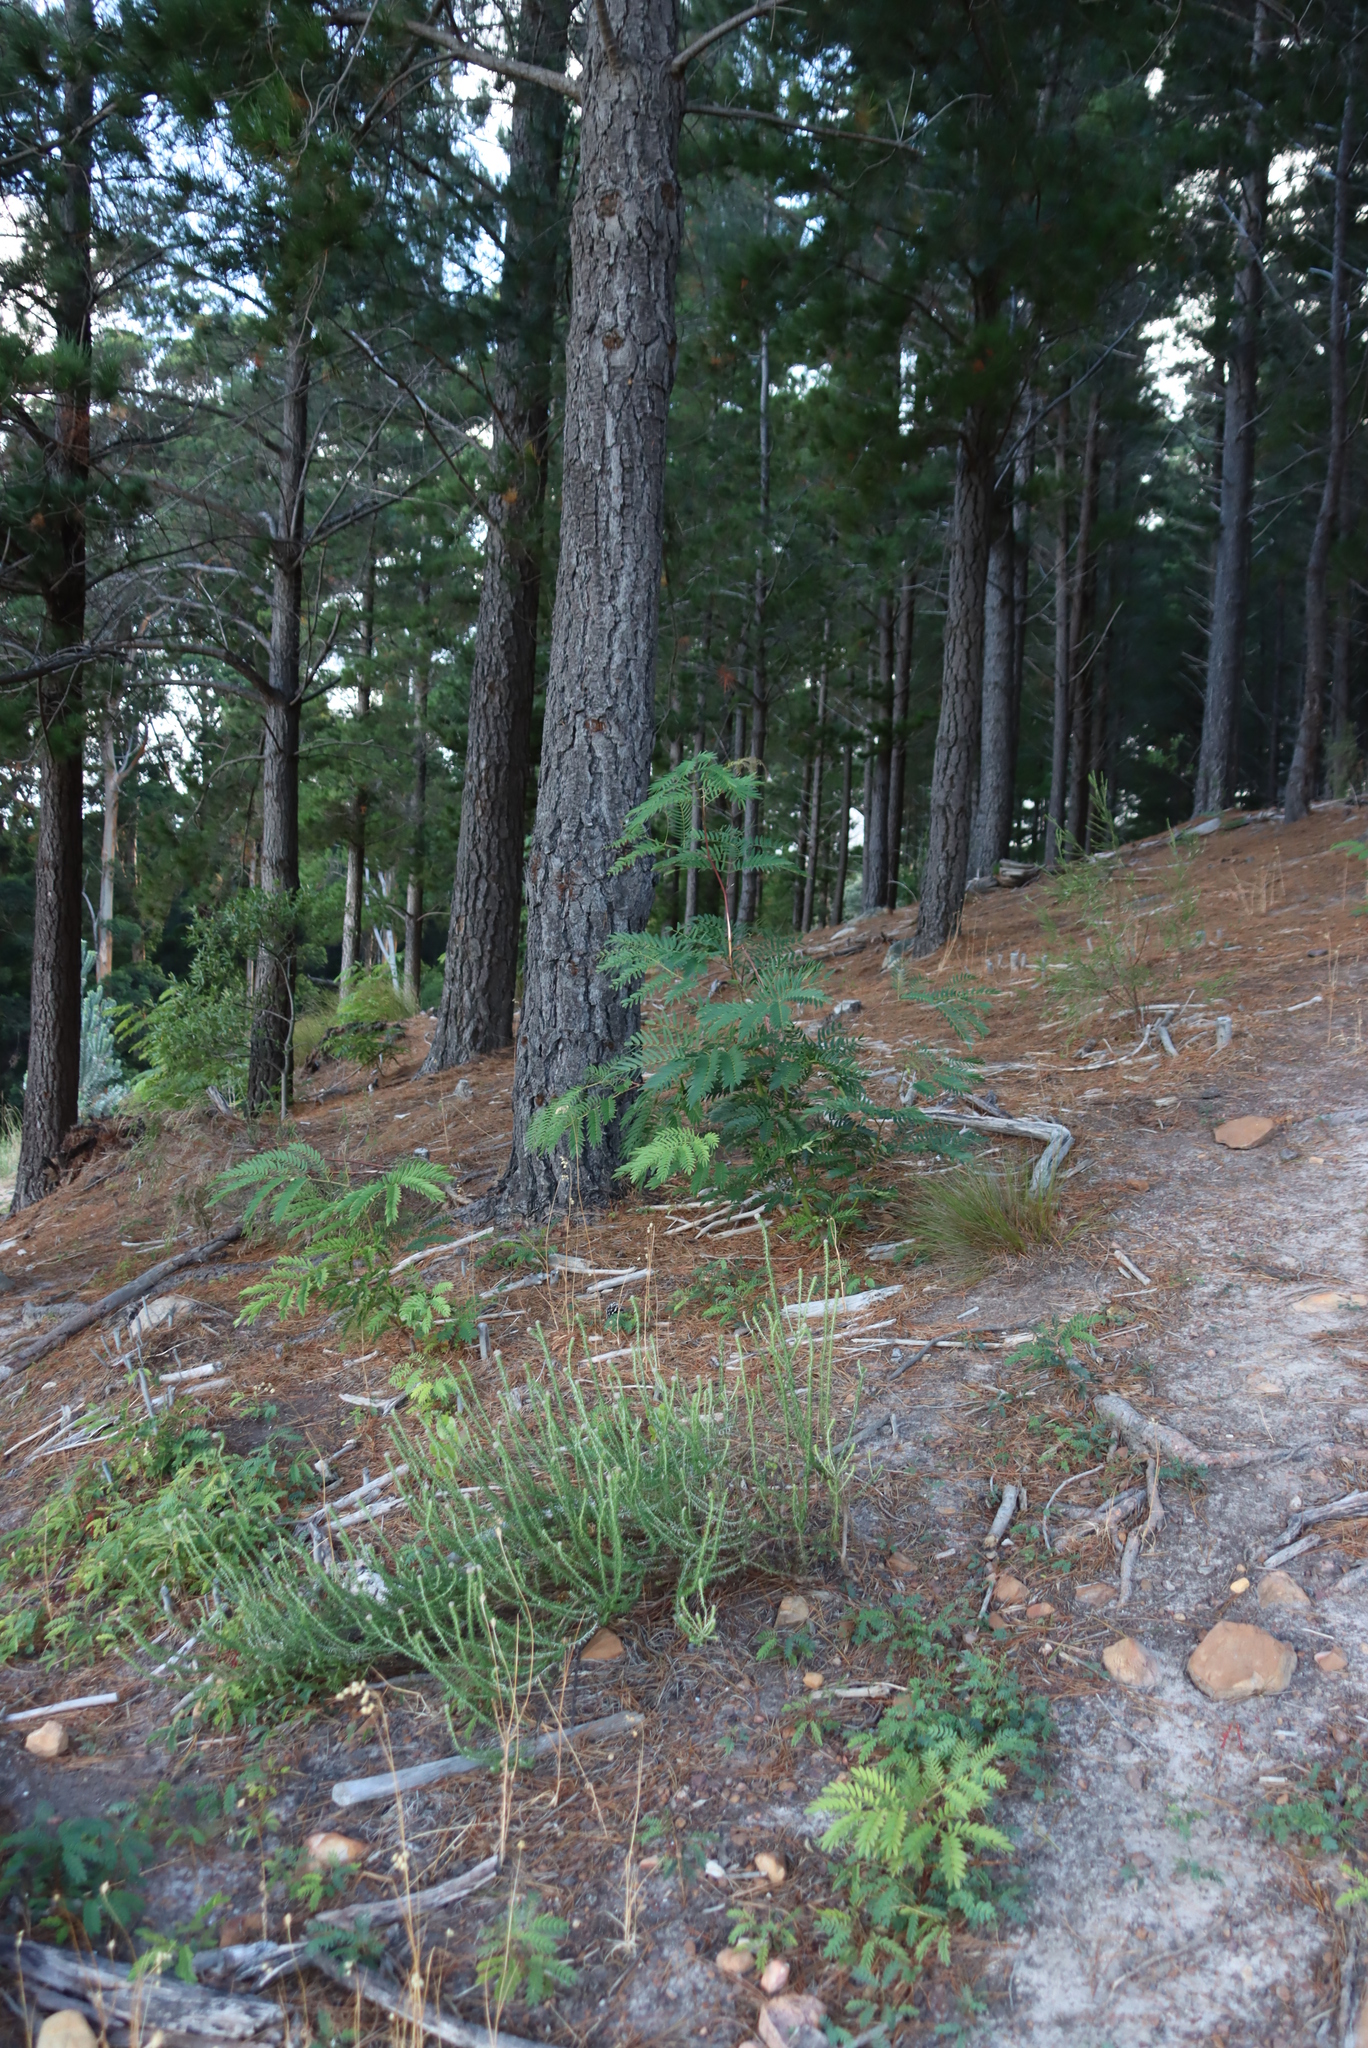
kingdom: Plantae
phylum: Tracheophyta
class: Magnoliopsida
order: Fabales
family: Fabaceae
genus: Acacia
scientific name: Acacia elata
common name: Cedar wattle
